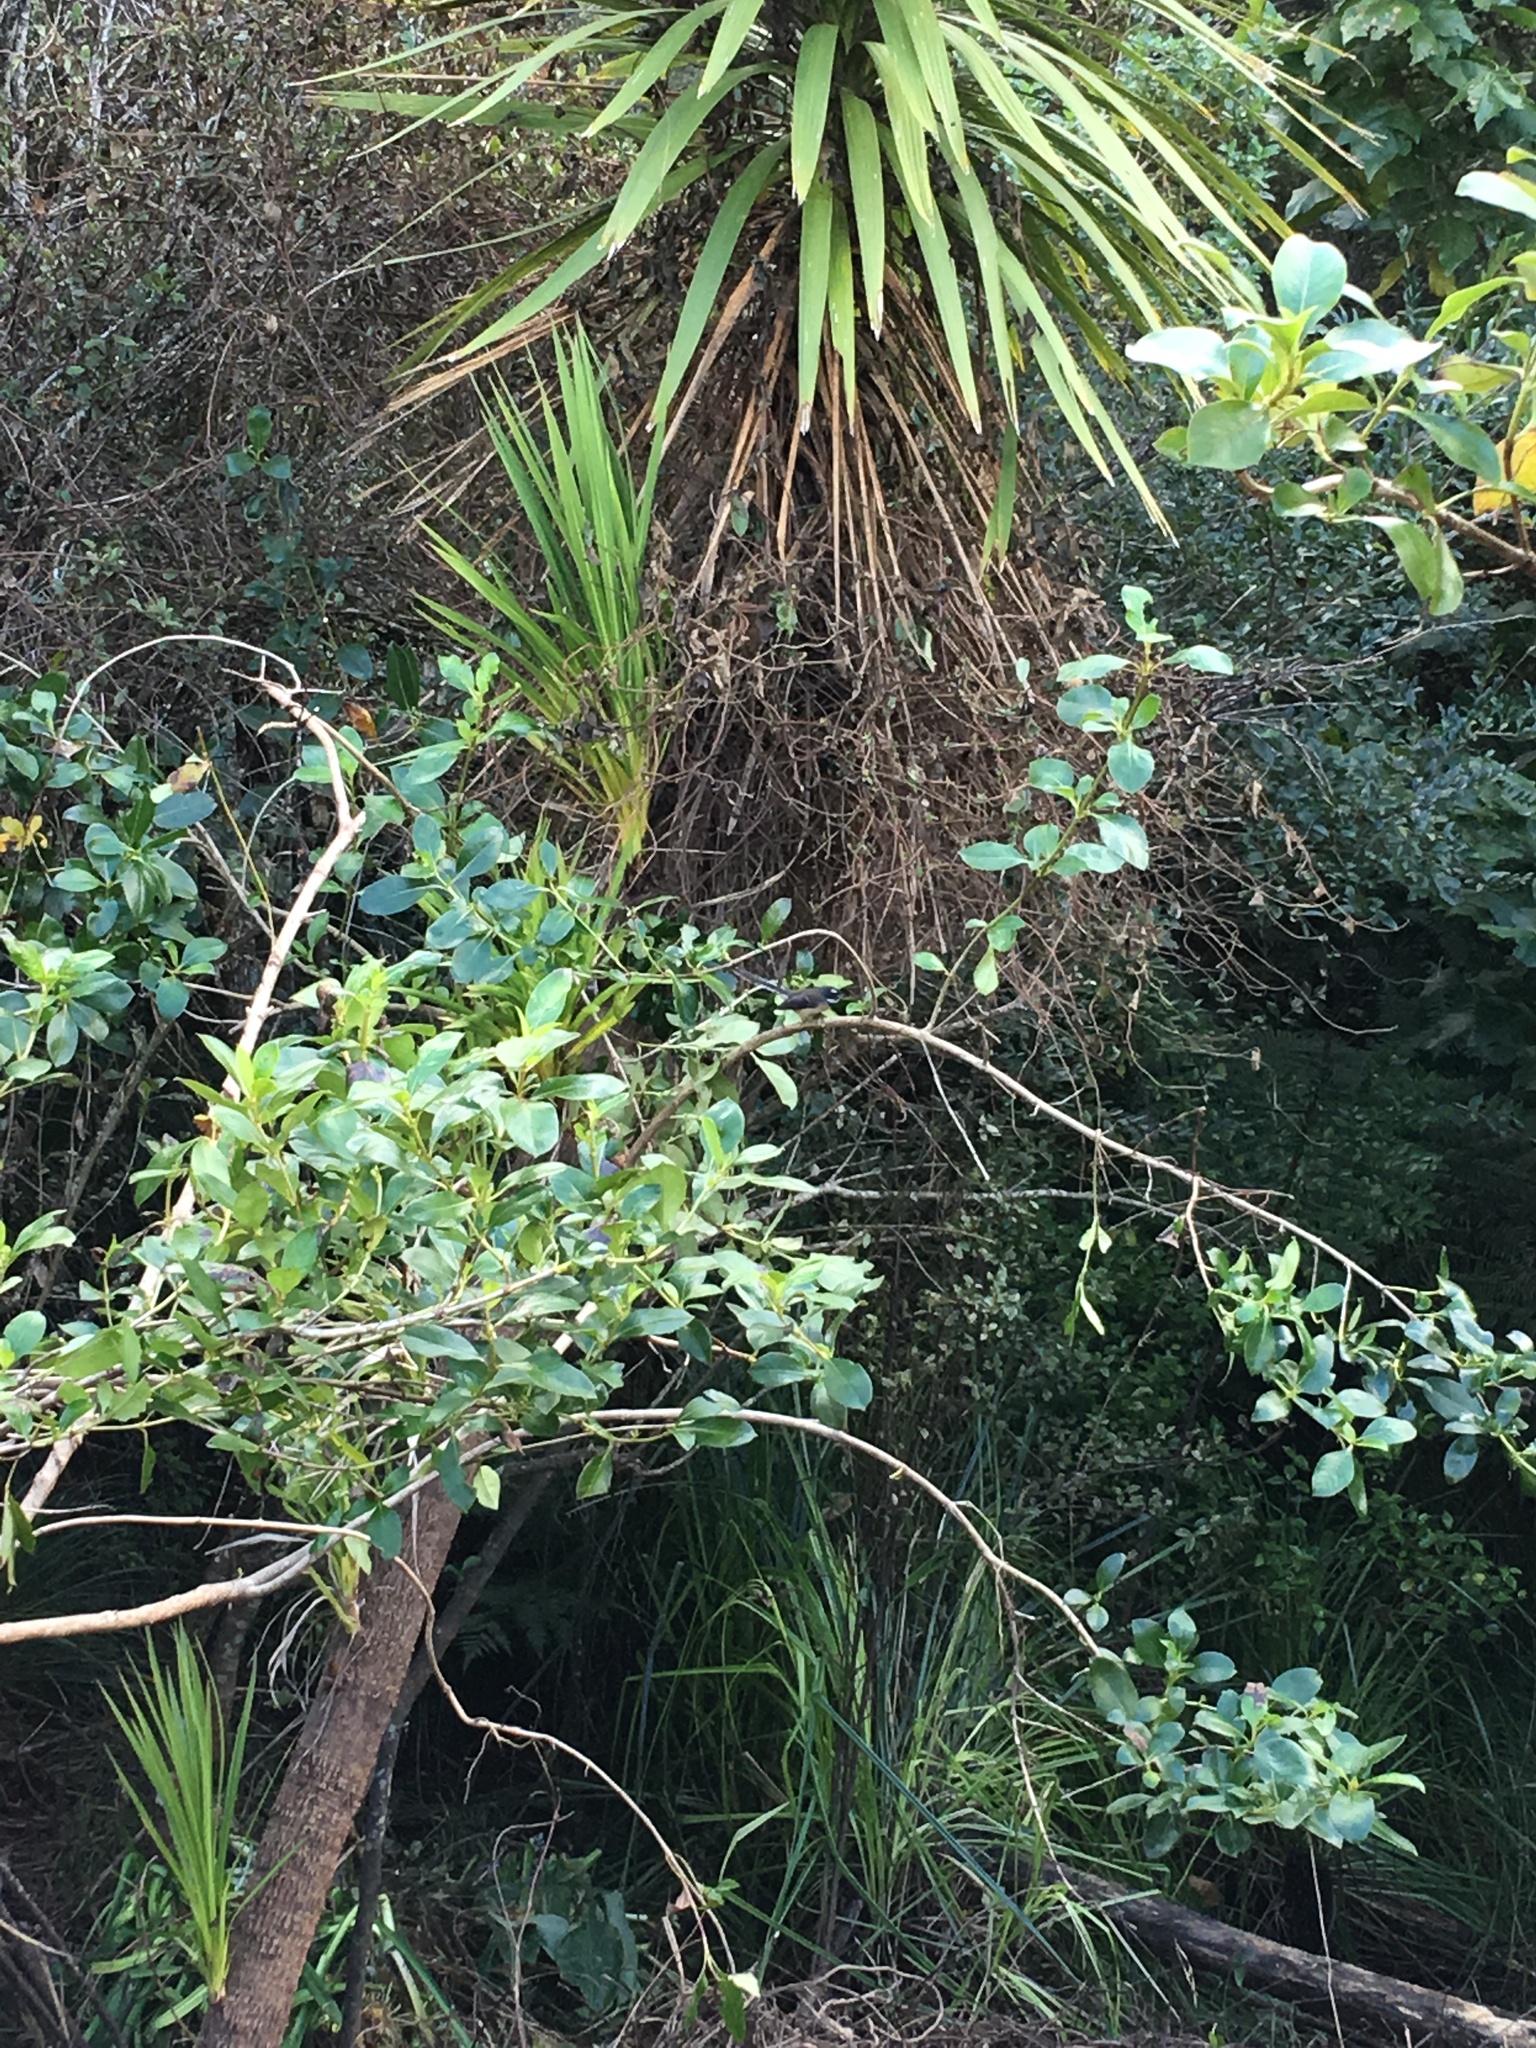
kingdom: Animalia
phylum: Chordata
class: Aves
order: Passeriformes
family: Rhipiduridae
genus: Rhipidura
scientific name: Rhipidura fuliginosa
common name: New zealand fantail
